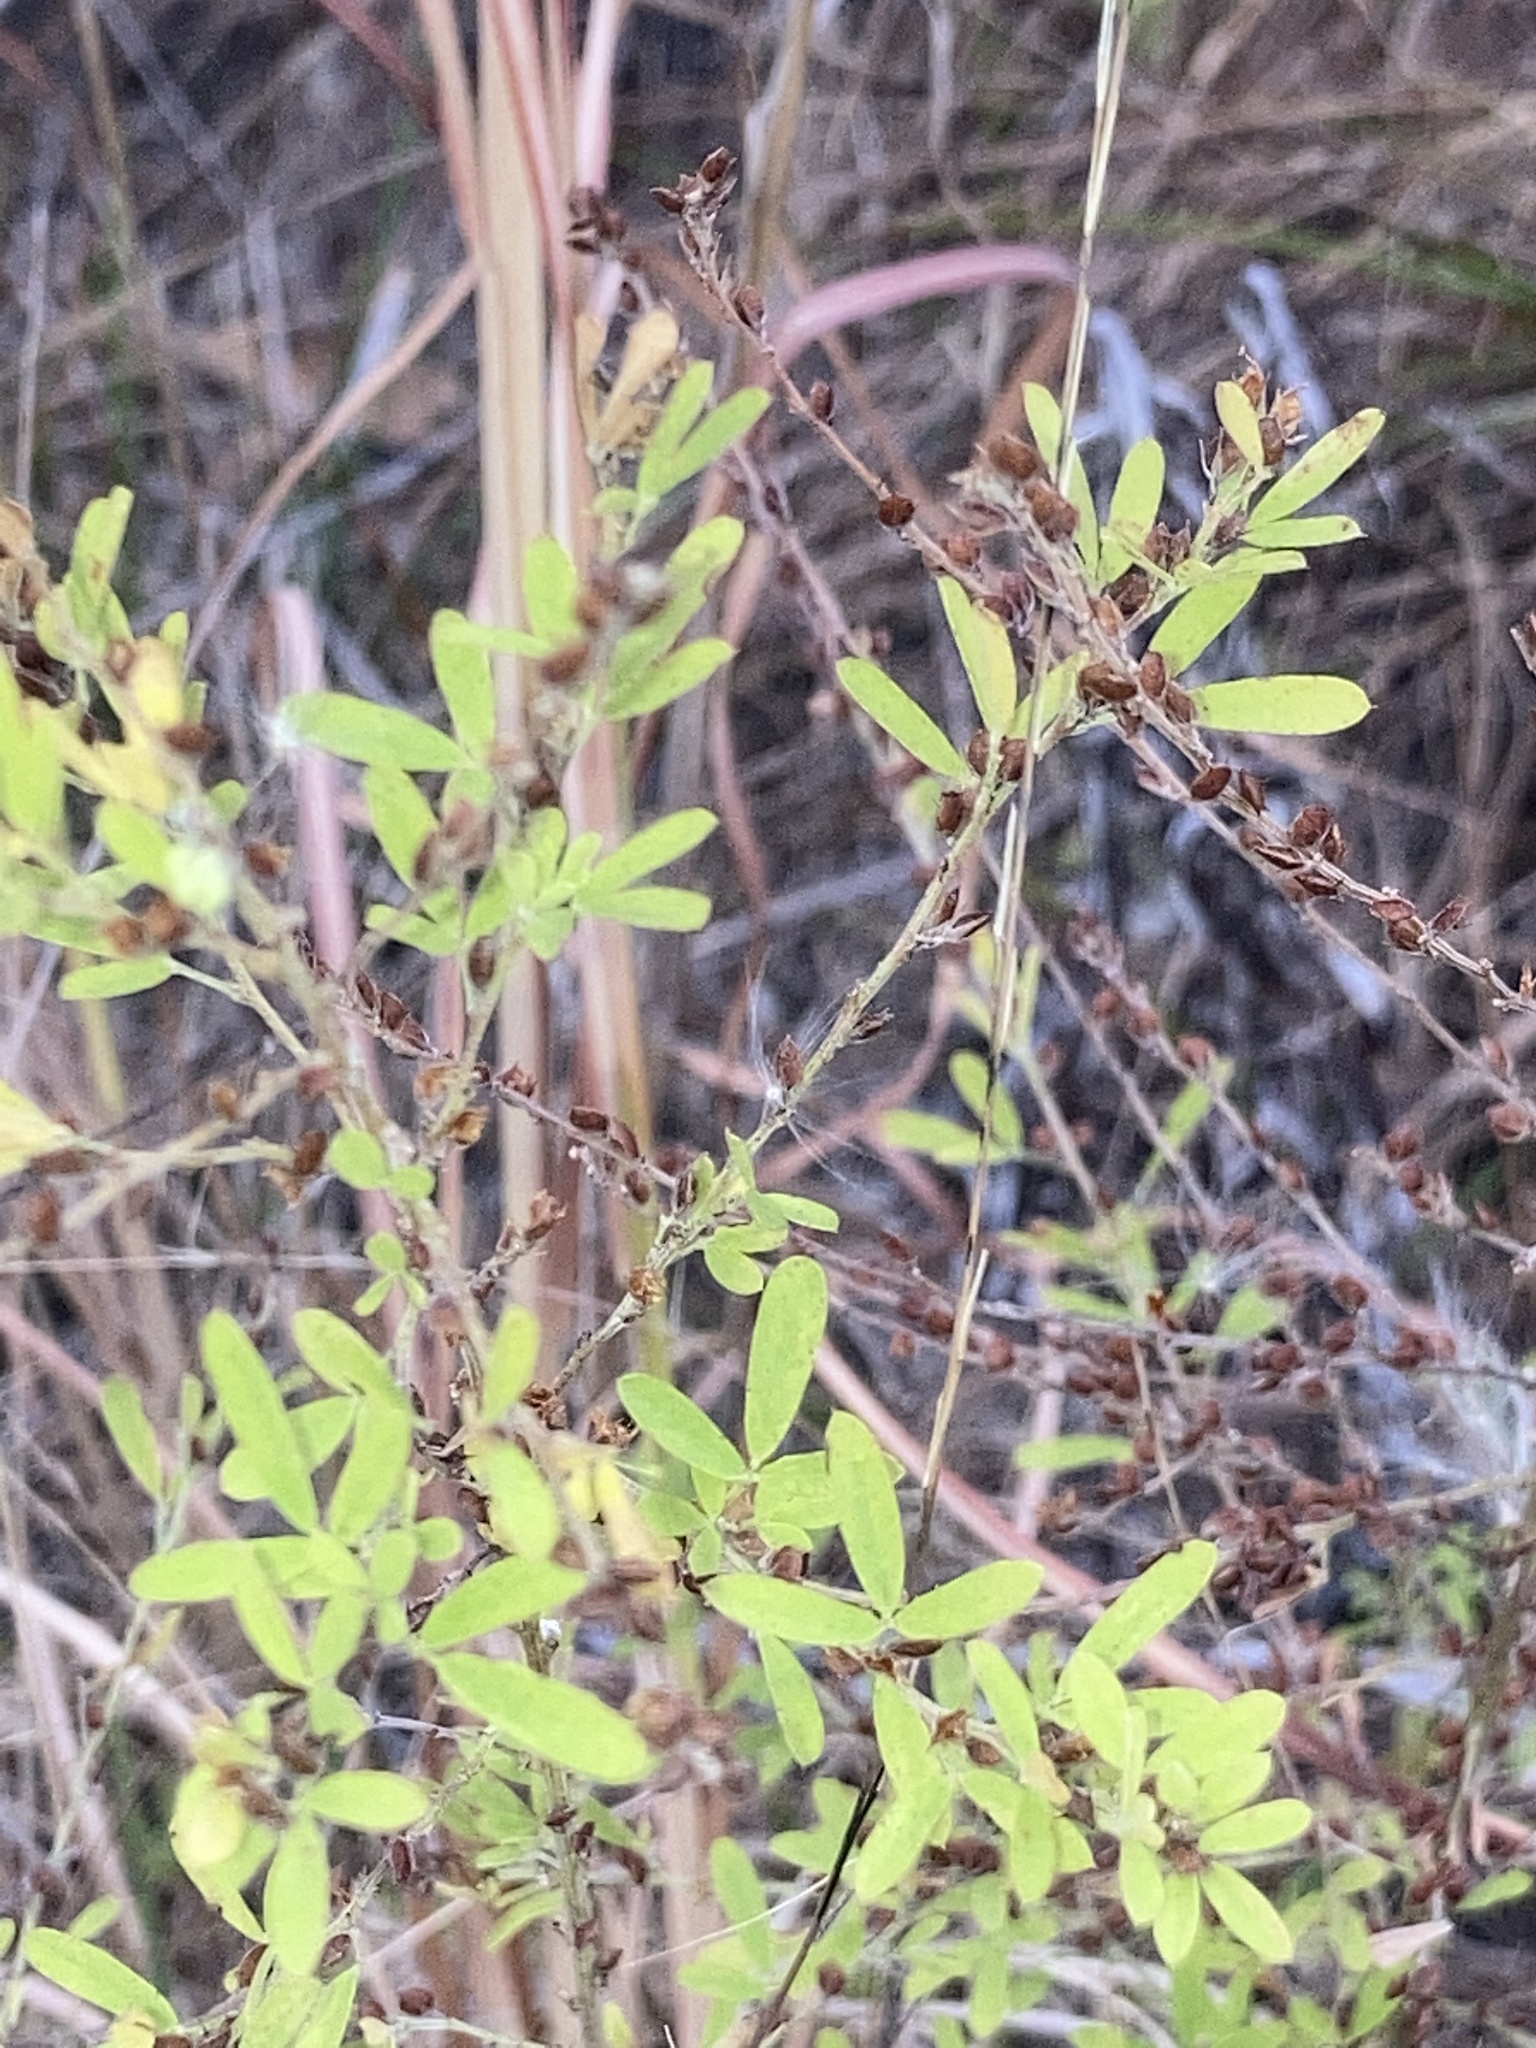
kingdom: Plantae
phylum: Tracheophyta
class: Magnoliopsida
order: Fabales
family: Fabaceae
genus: Lespedeza
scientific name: Lespedeza cuneata
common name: Chinese bush-clover
